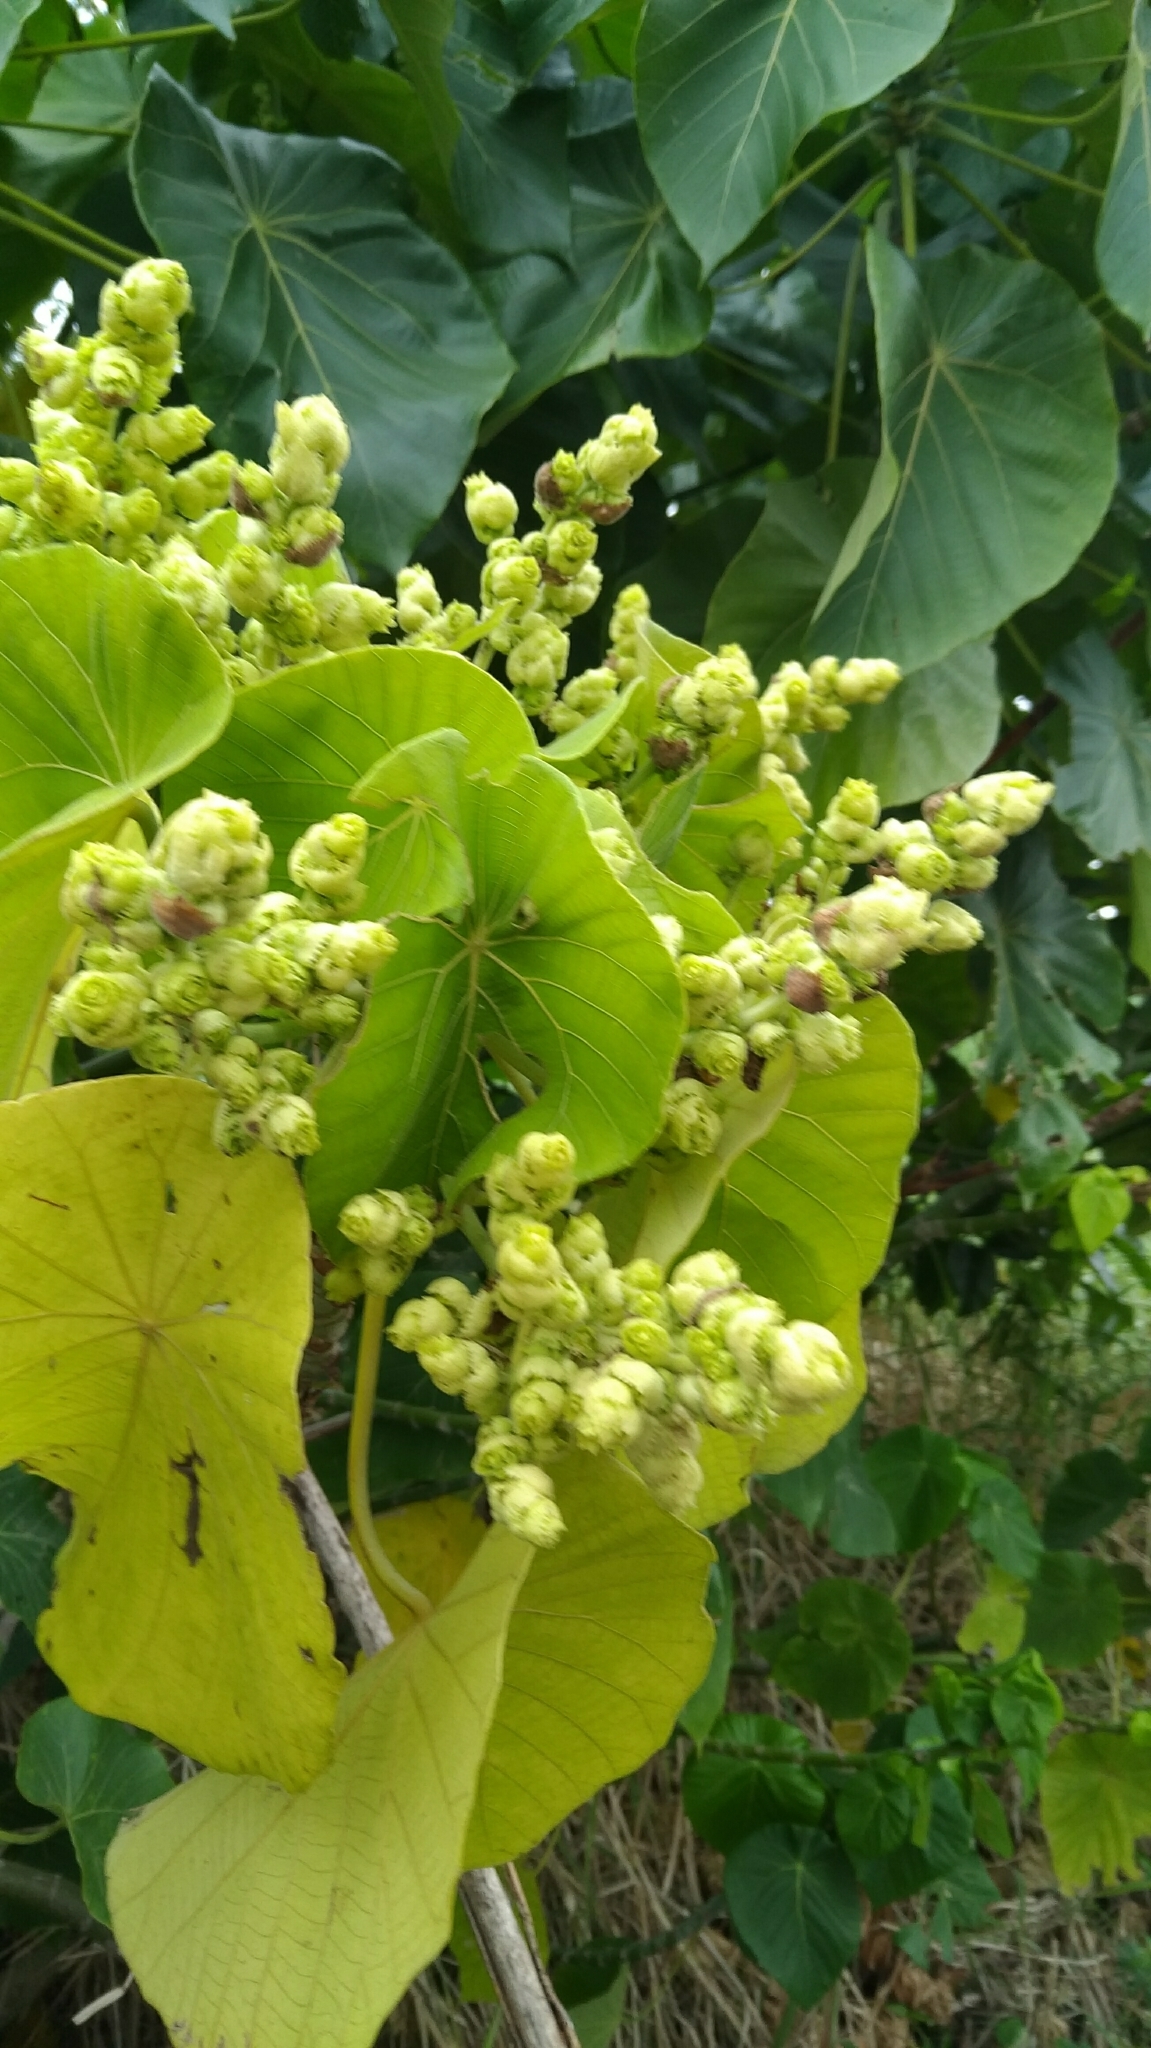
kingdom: Plantae
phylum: Tracheophyta
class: Magnoliopsida
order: Malpighiales
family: Euphorbiaceae
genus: Macaranga
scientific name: Macaranga tanarius
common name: Parasol leaf tree
